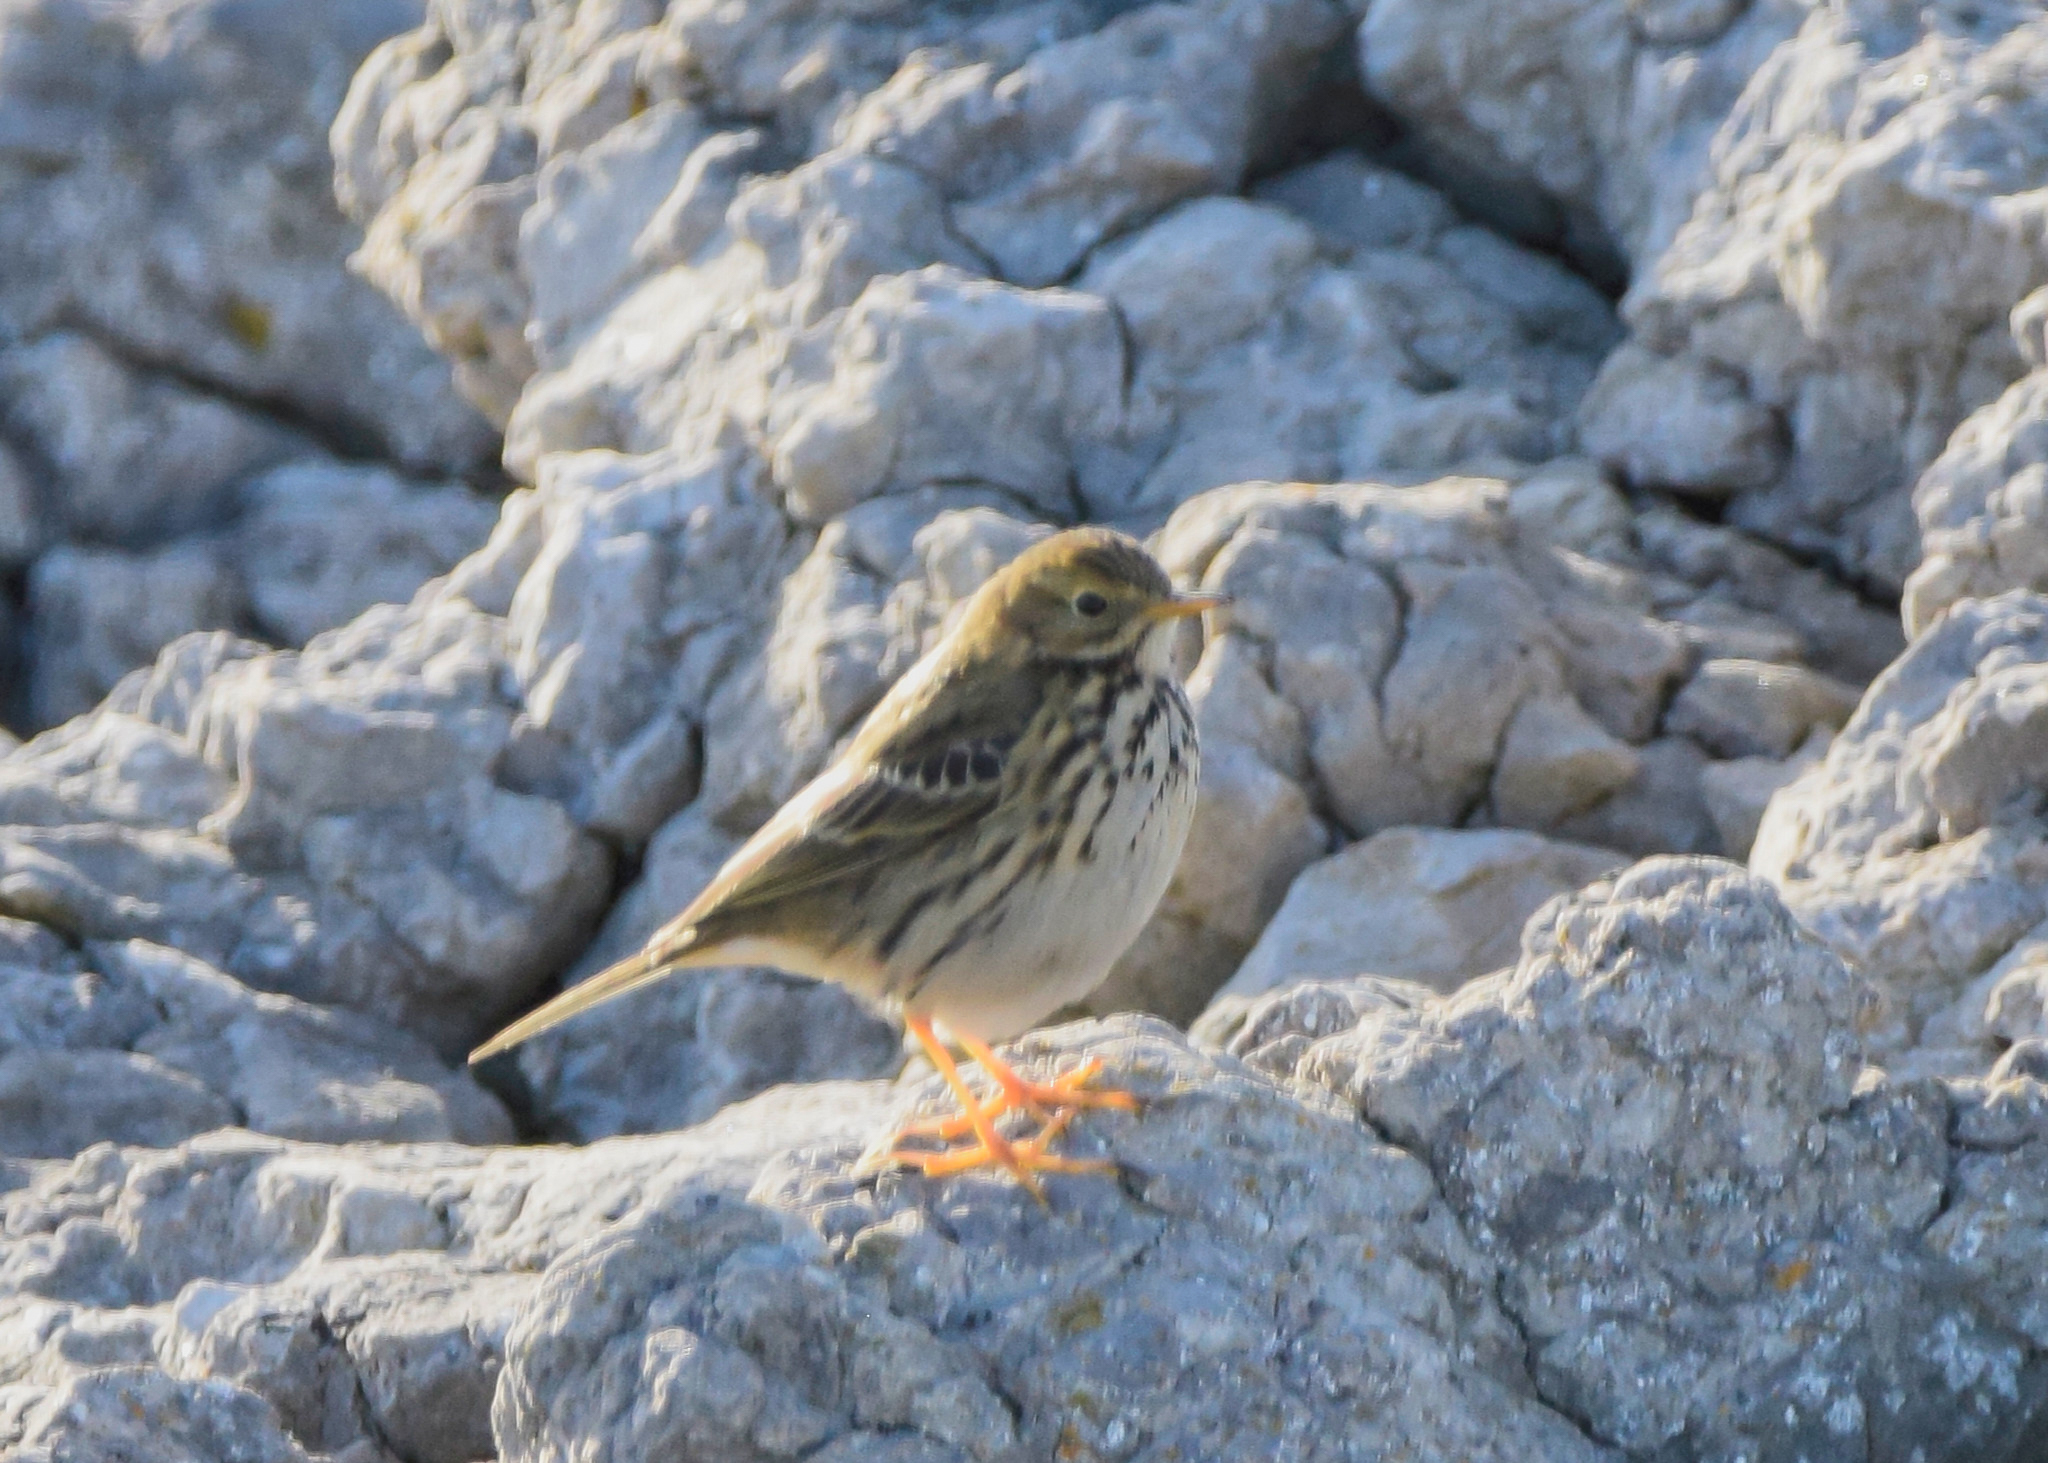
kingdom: Animalia
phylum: Chordata
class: Aves
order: Passeriformes
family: Motacillidae
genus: Anthus
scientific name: Anthus pratensis
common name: Meadow pipit
